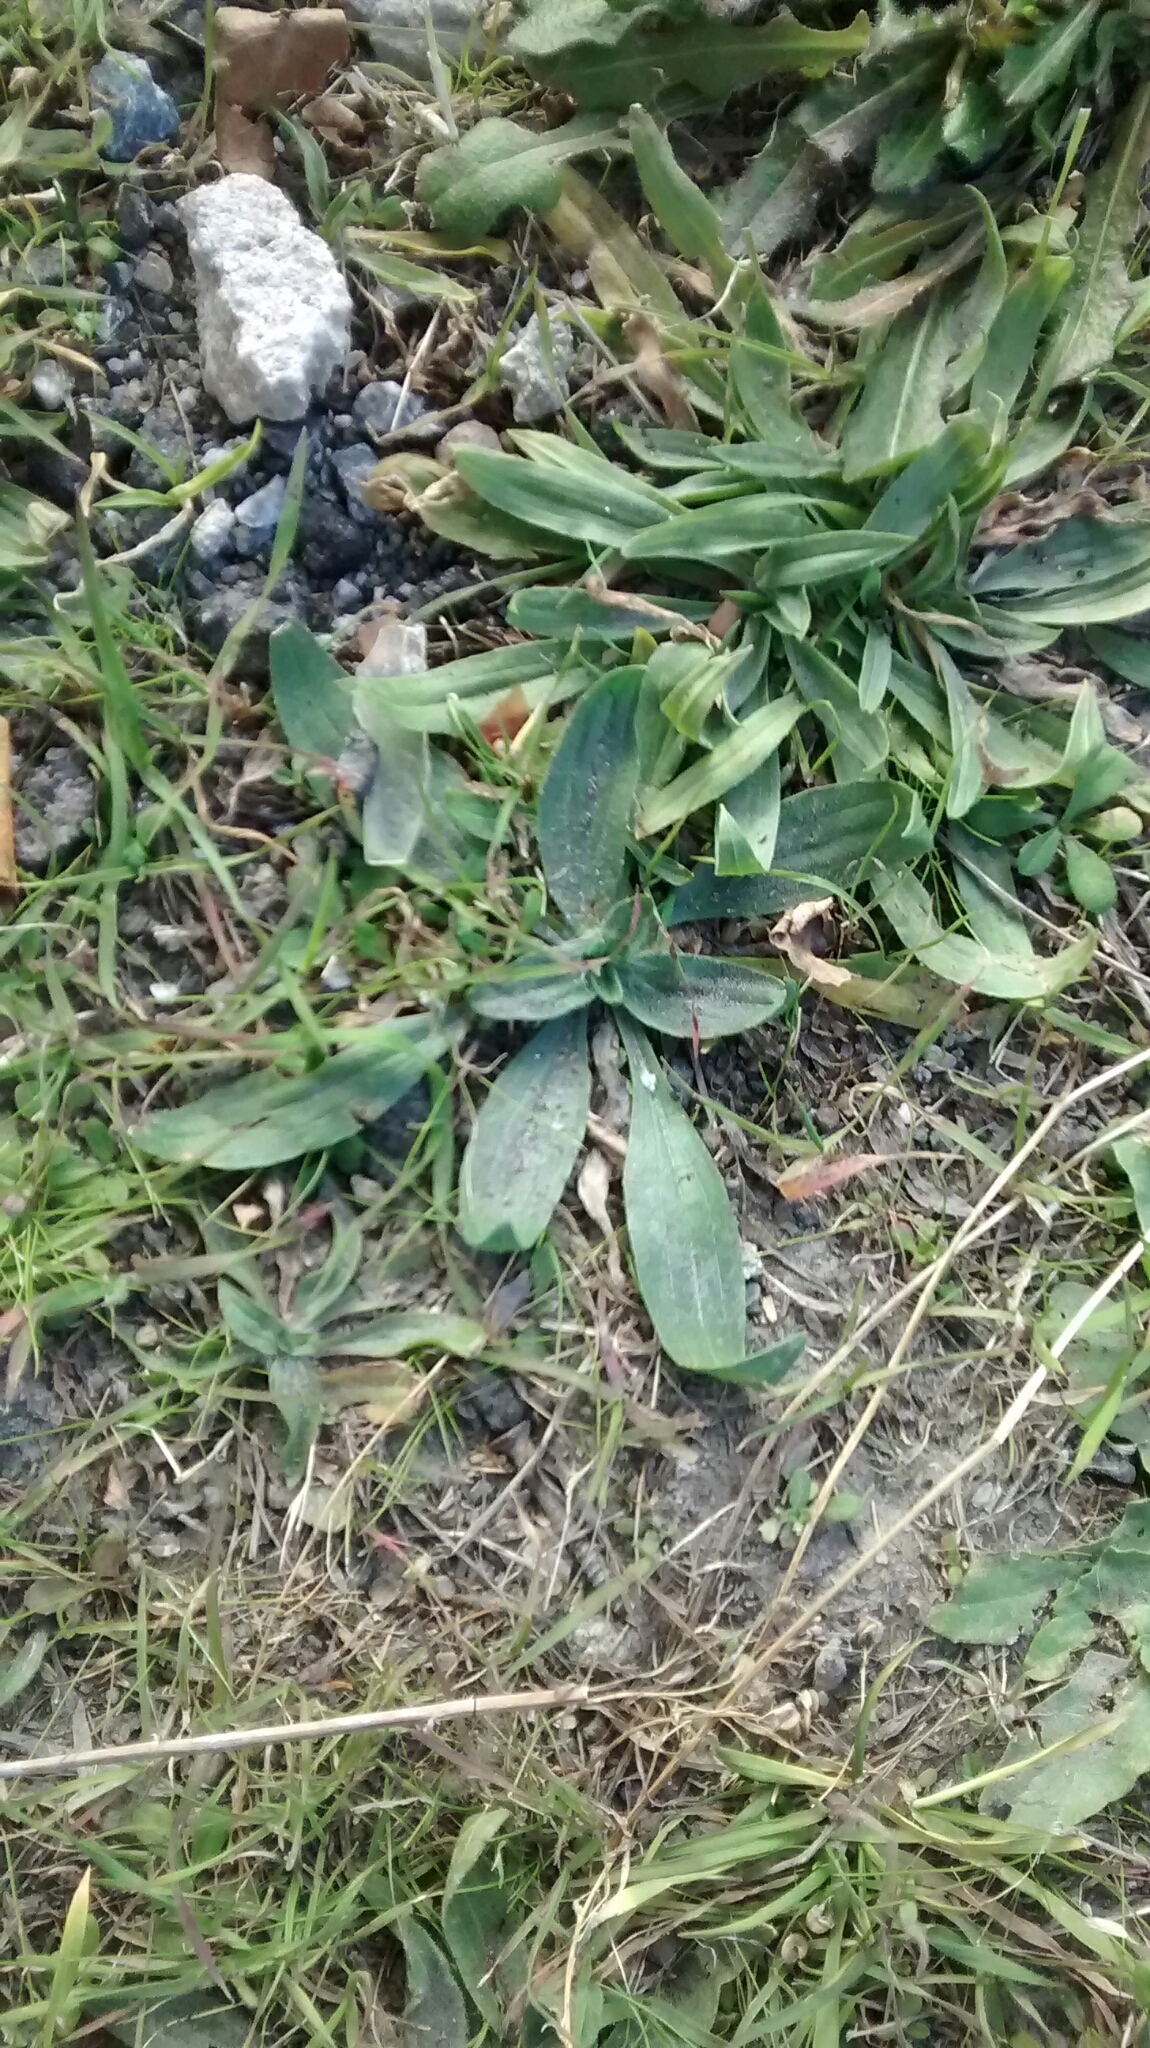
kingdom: Plantae
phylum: Tracheophyta
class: Magnoliopsida
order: Lamiales
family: Plantaginaceae
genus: Plantago
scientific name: Plantago lanceolata
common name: Ribwort plantain
